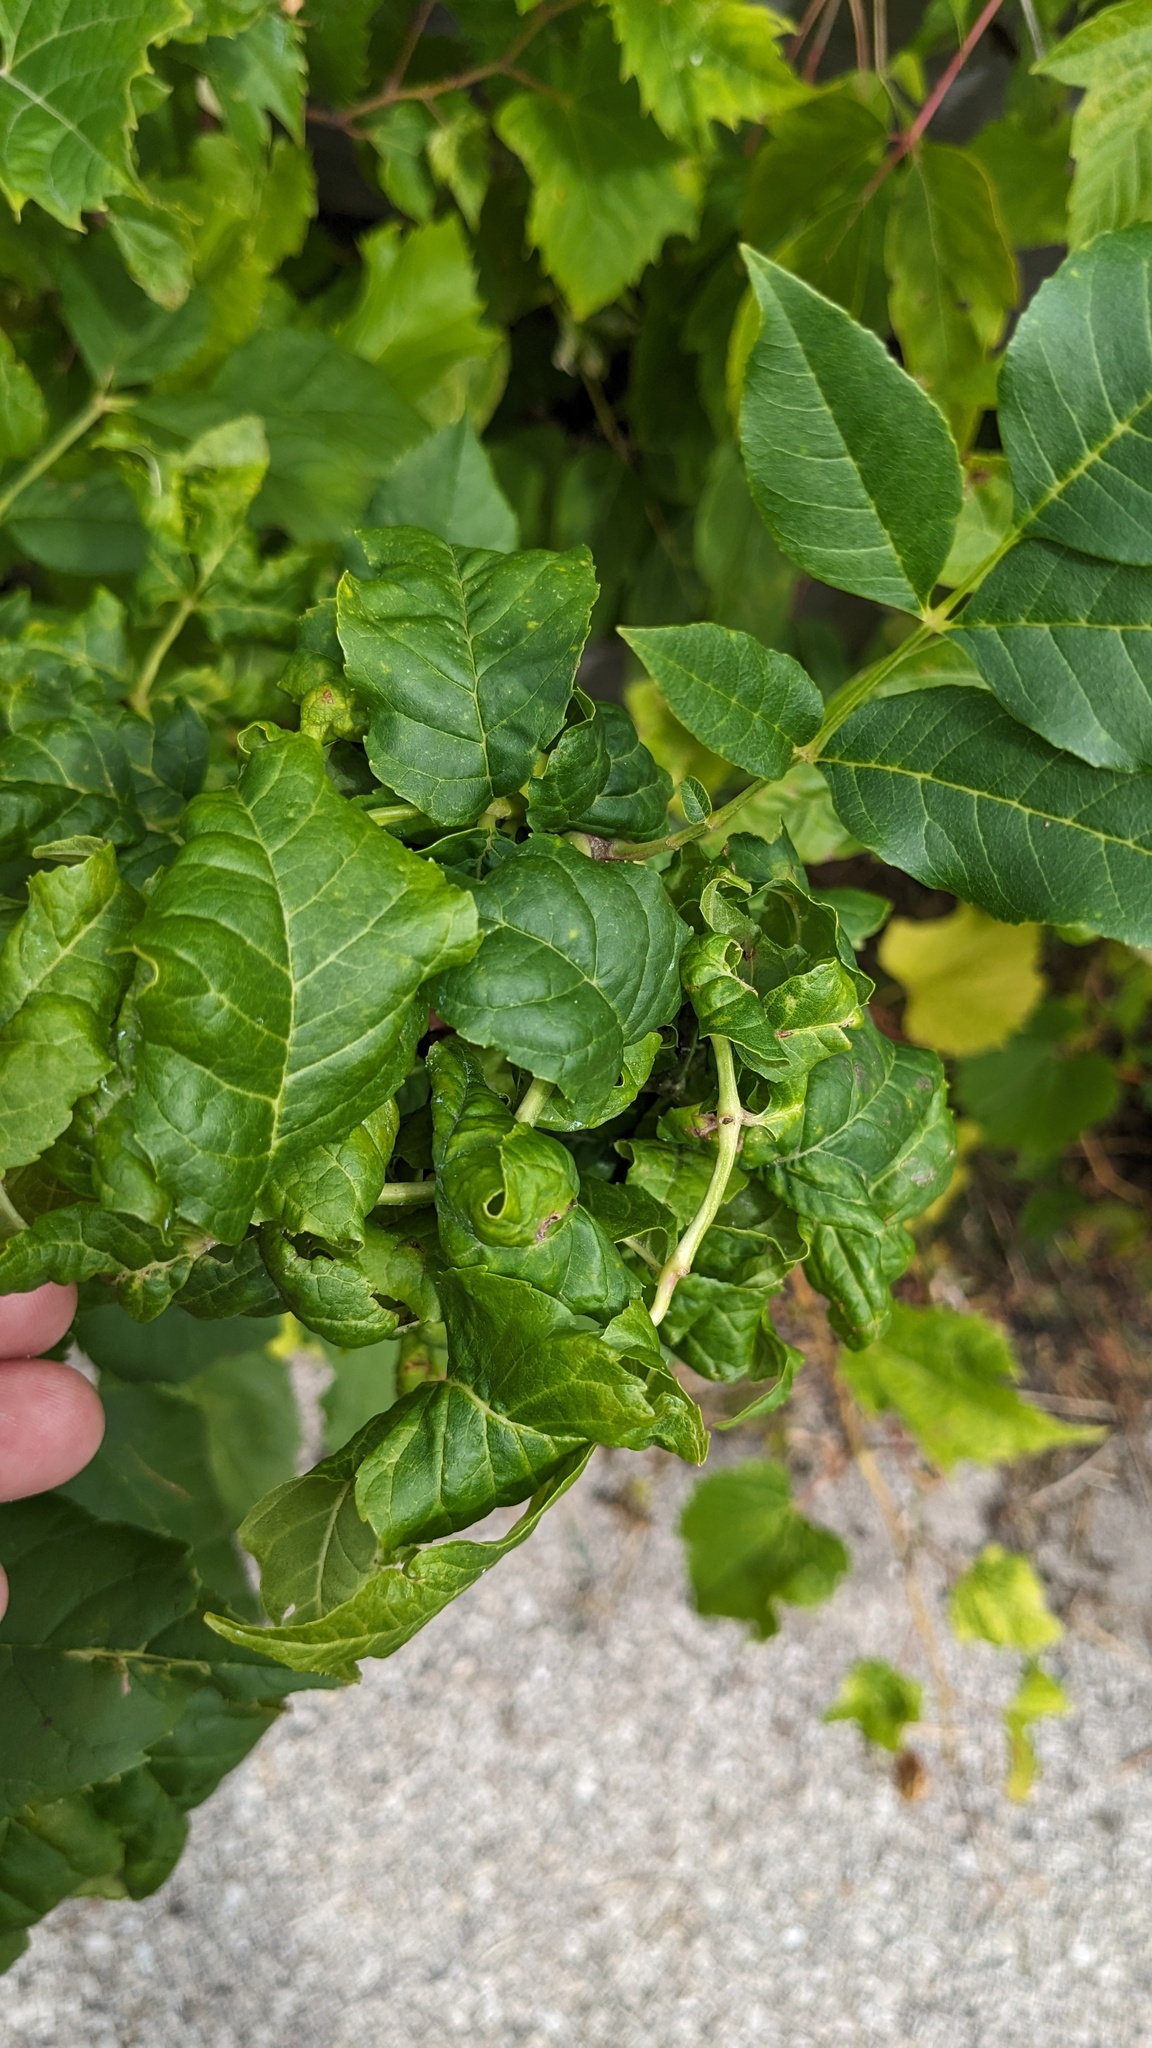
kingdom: Animalia
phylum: Arthropoda
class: Insecta
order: Hemiptera
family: Aphididae
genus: Prociphilus
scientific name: Prociphilus fraxinifolii
